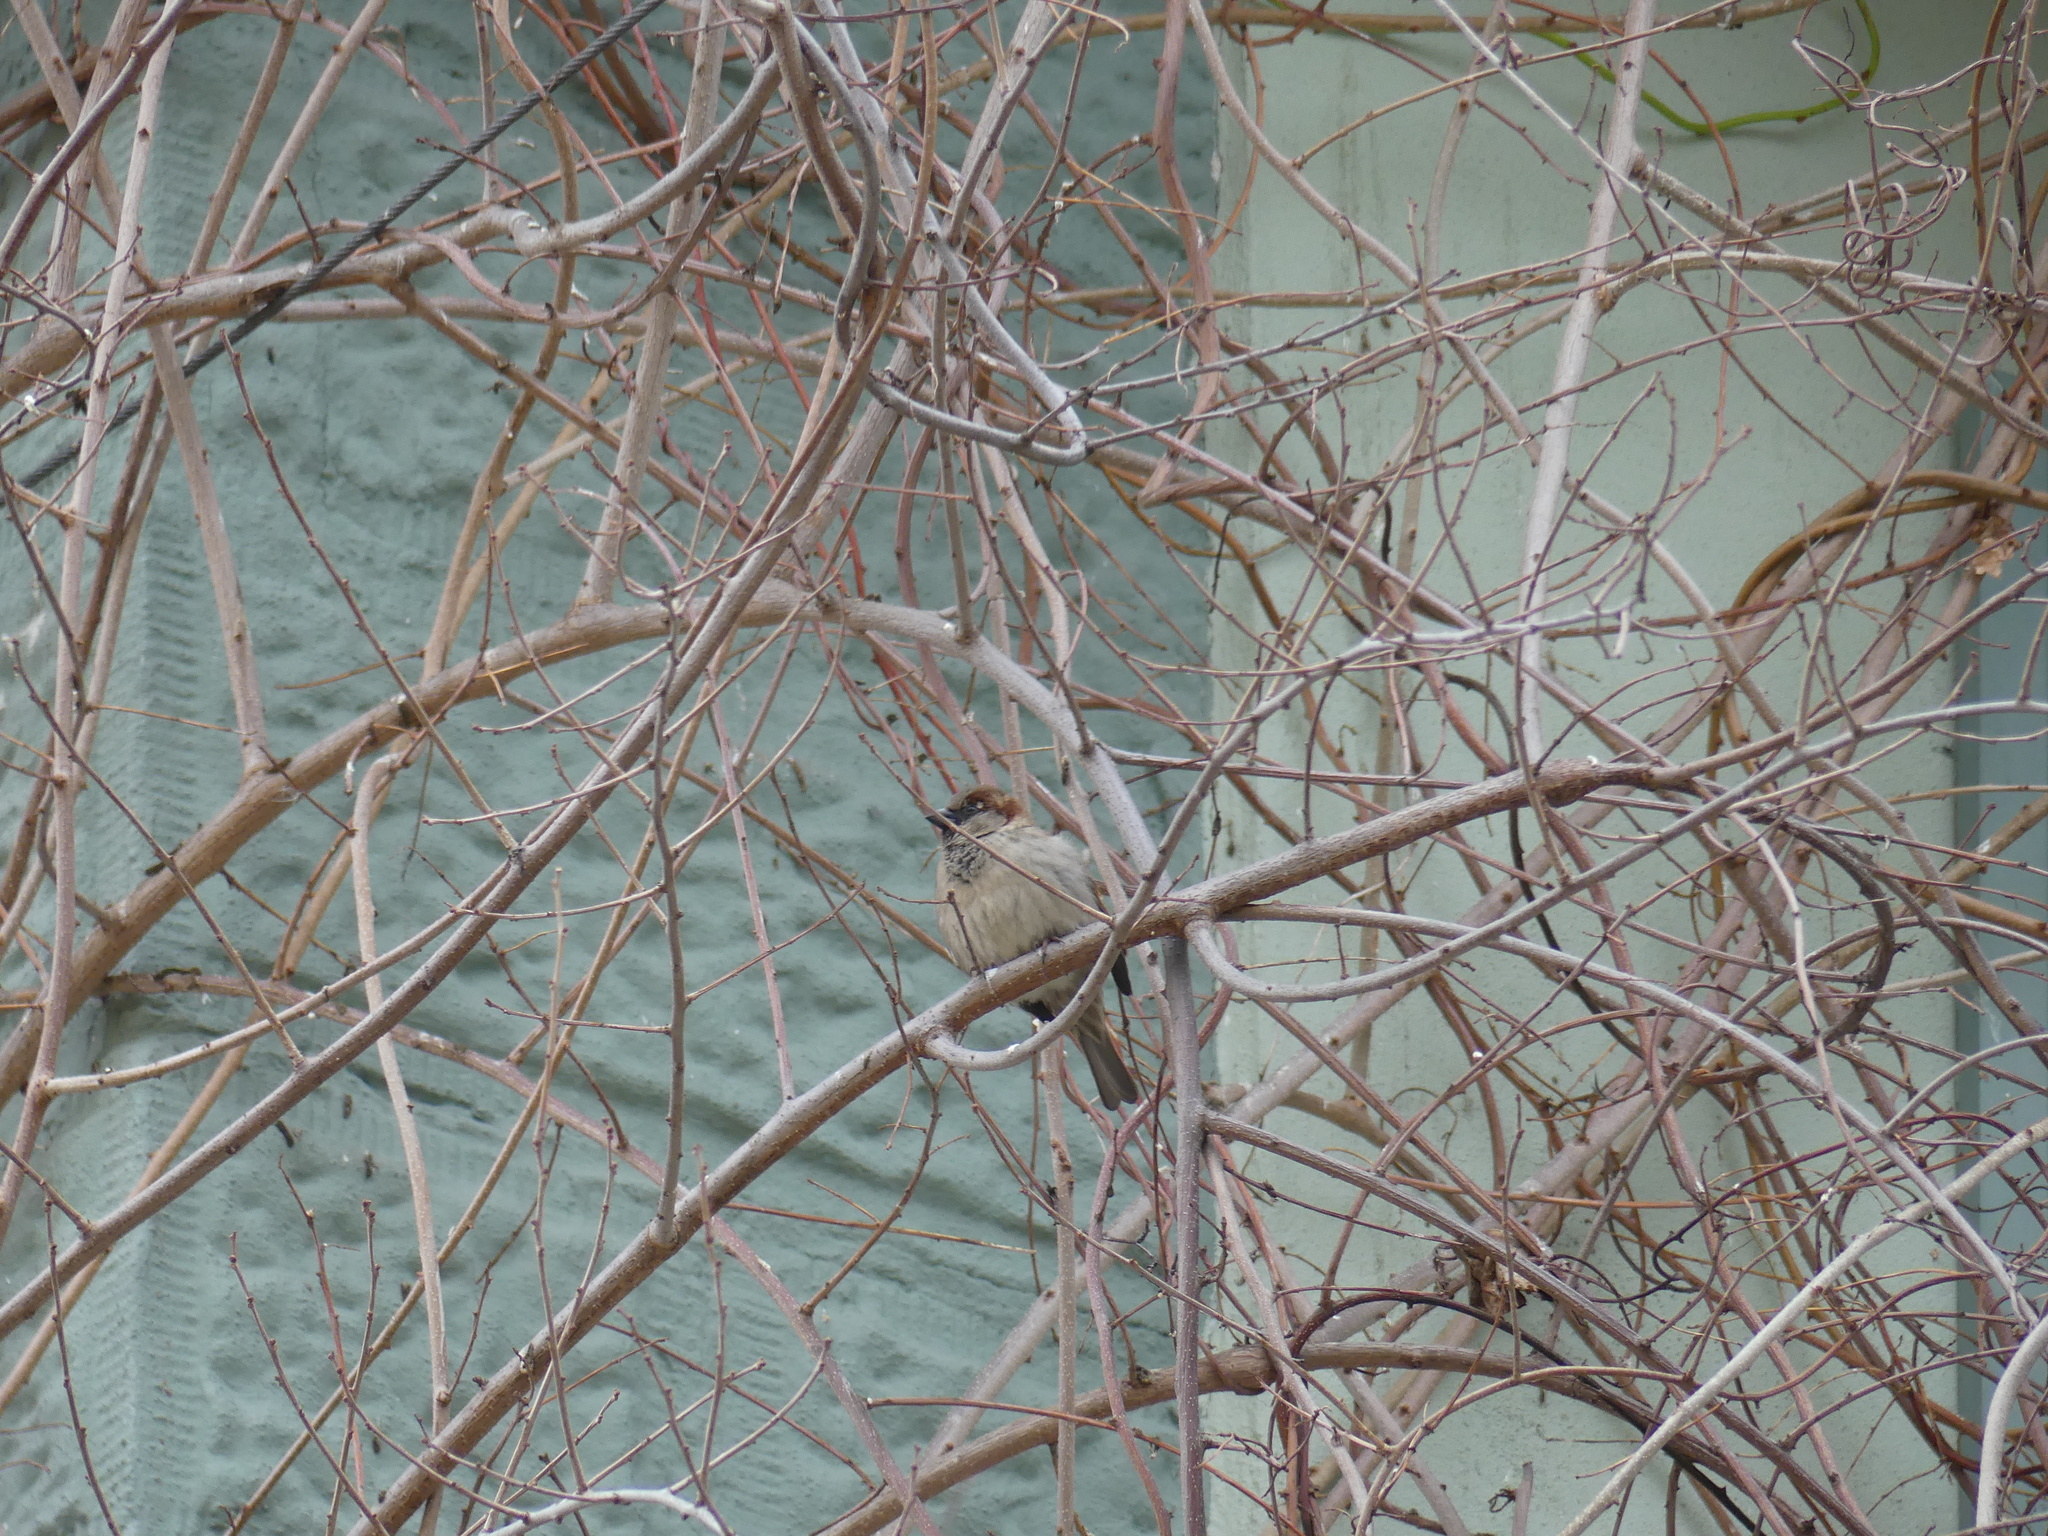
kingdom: Animalia
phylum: Chordata
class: Aves
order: Passeriformes
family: Passeridae
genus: Passer
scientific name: Passer domesticus
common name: House sparrow
